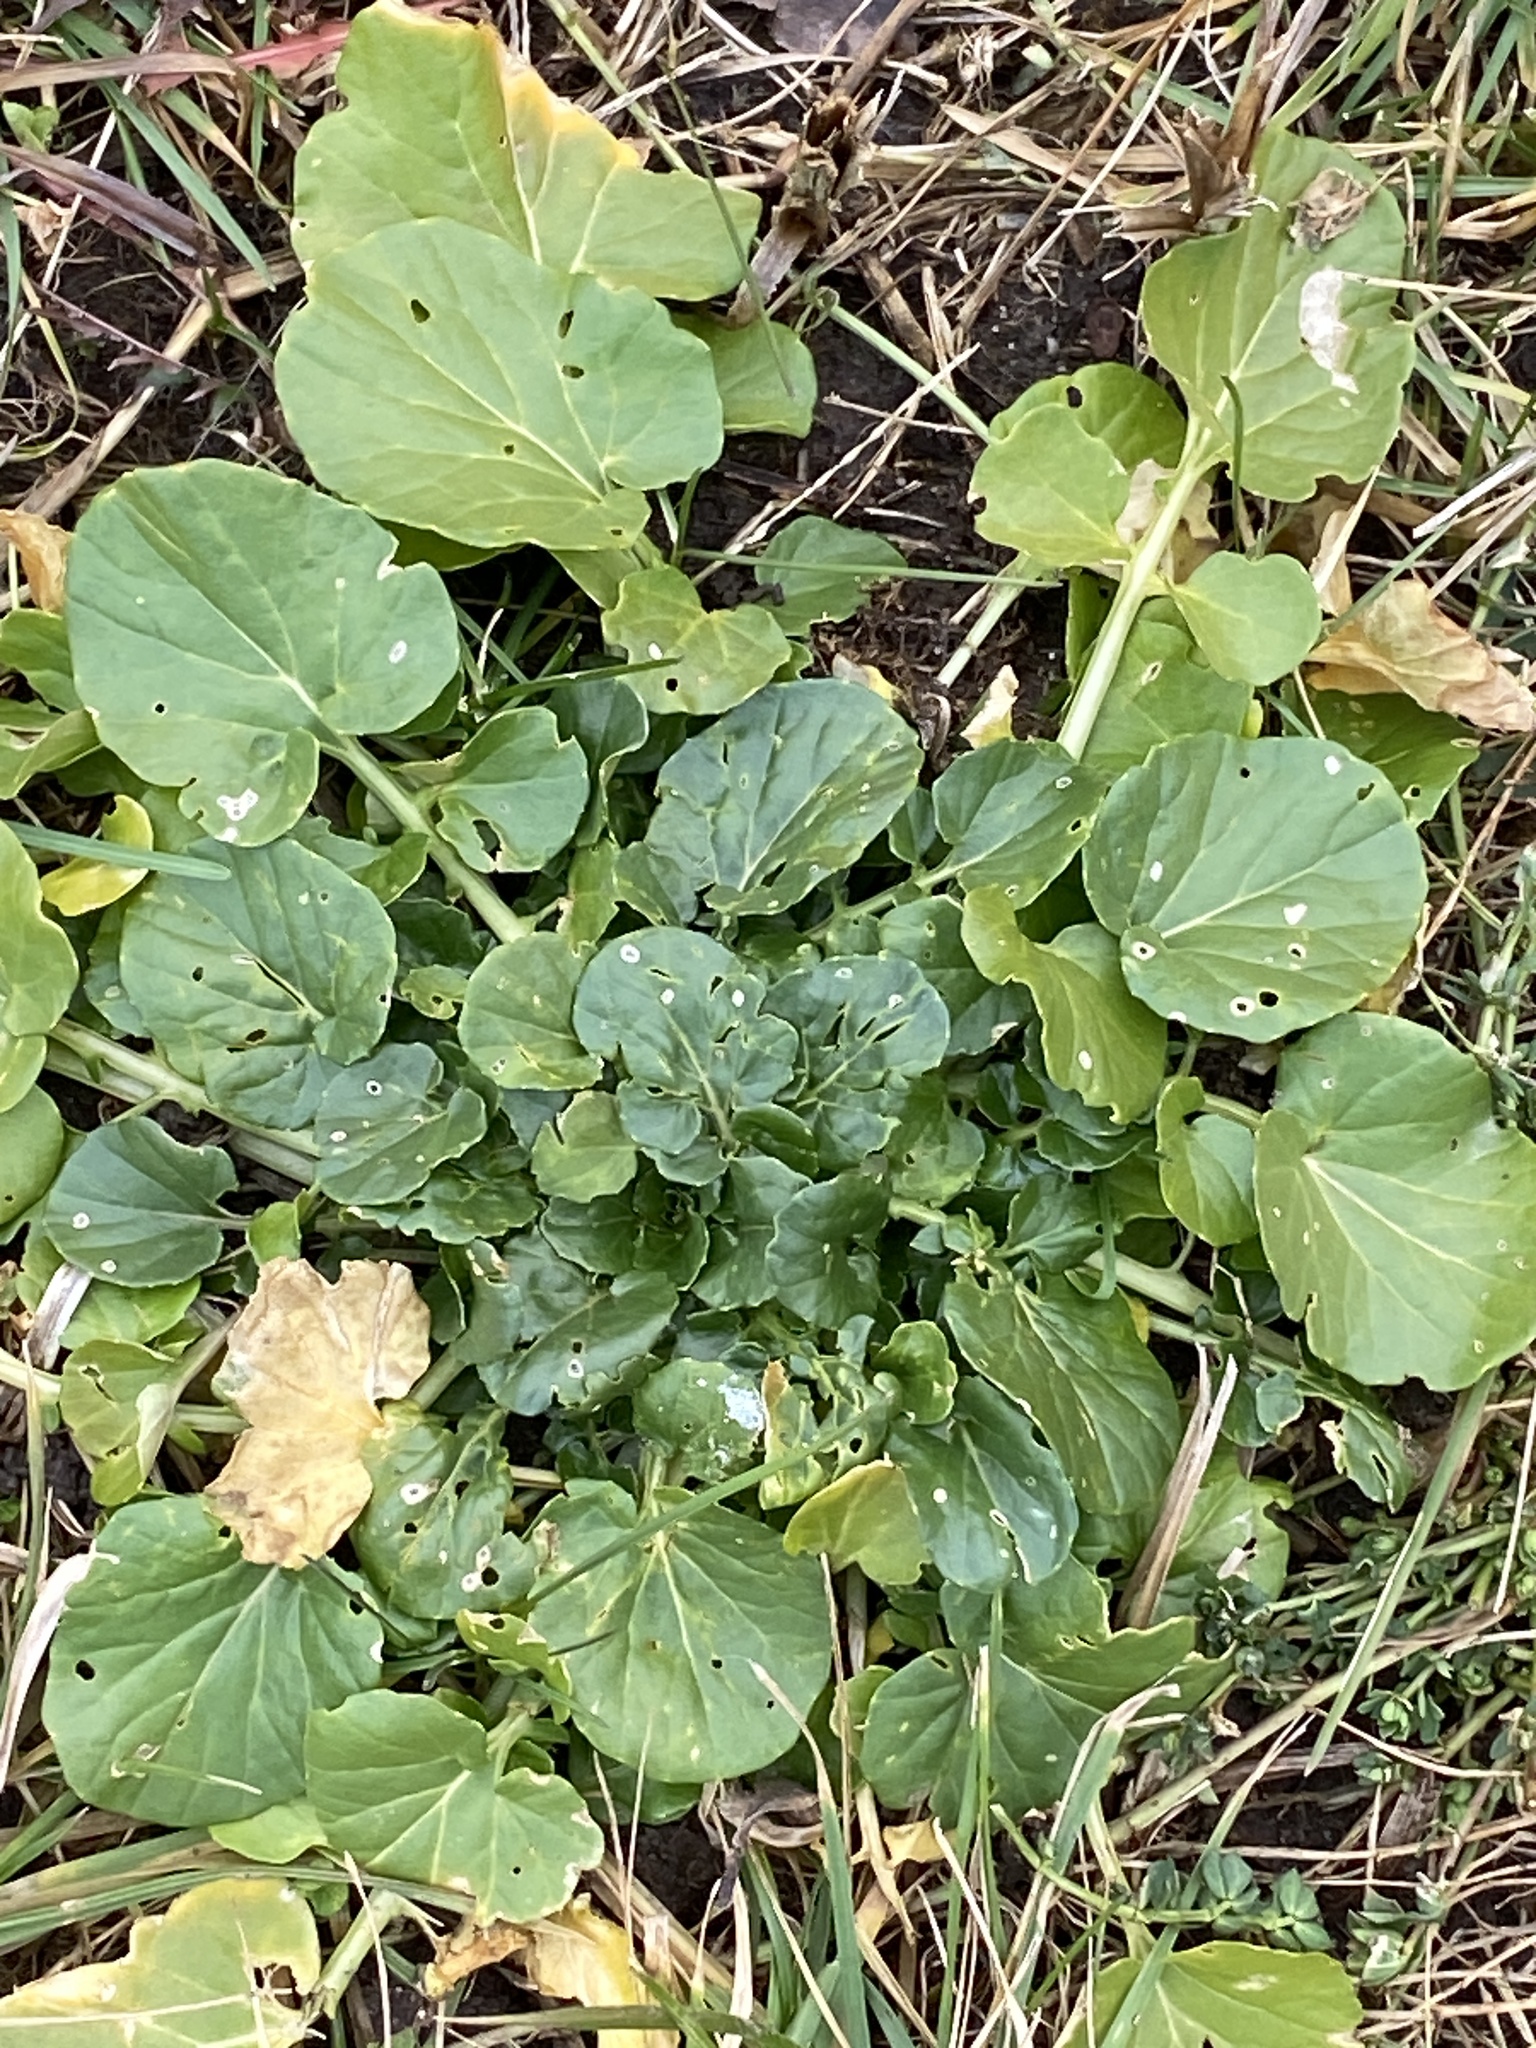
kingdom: Plantae
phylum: Tracheophyta
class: Magnoliopsida
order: Brassicales
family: Brassicaceae
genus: Barbarea
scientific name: Barbarea vulgaris
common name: Cressy-greens
